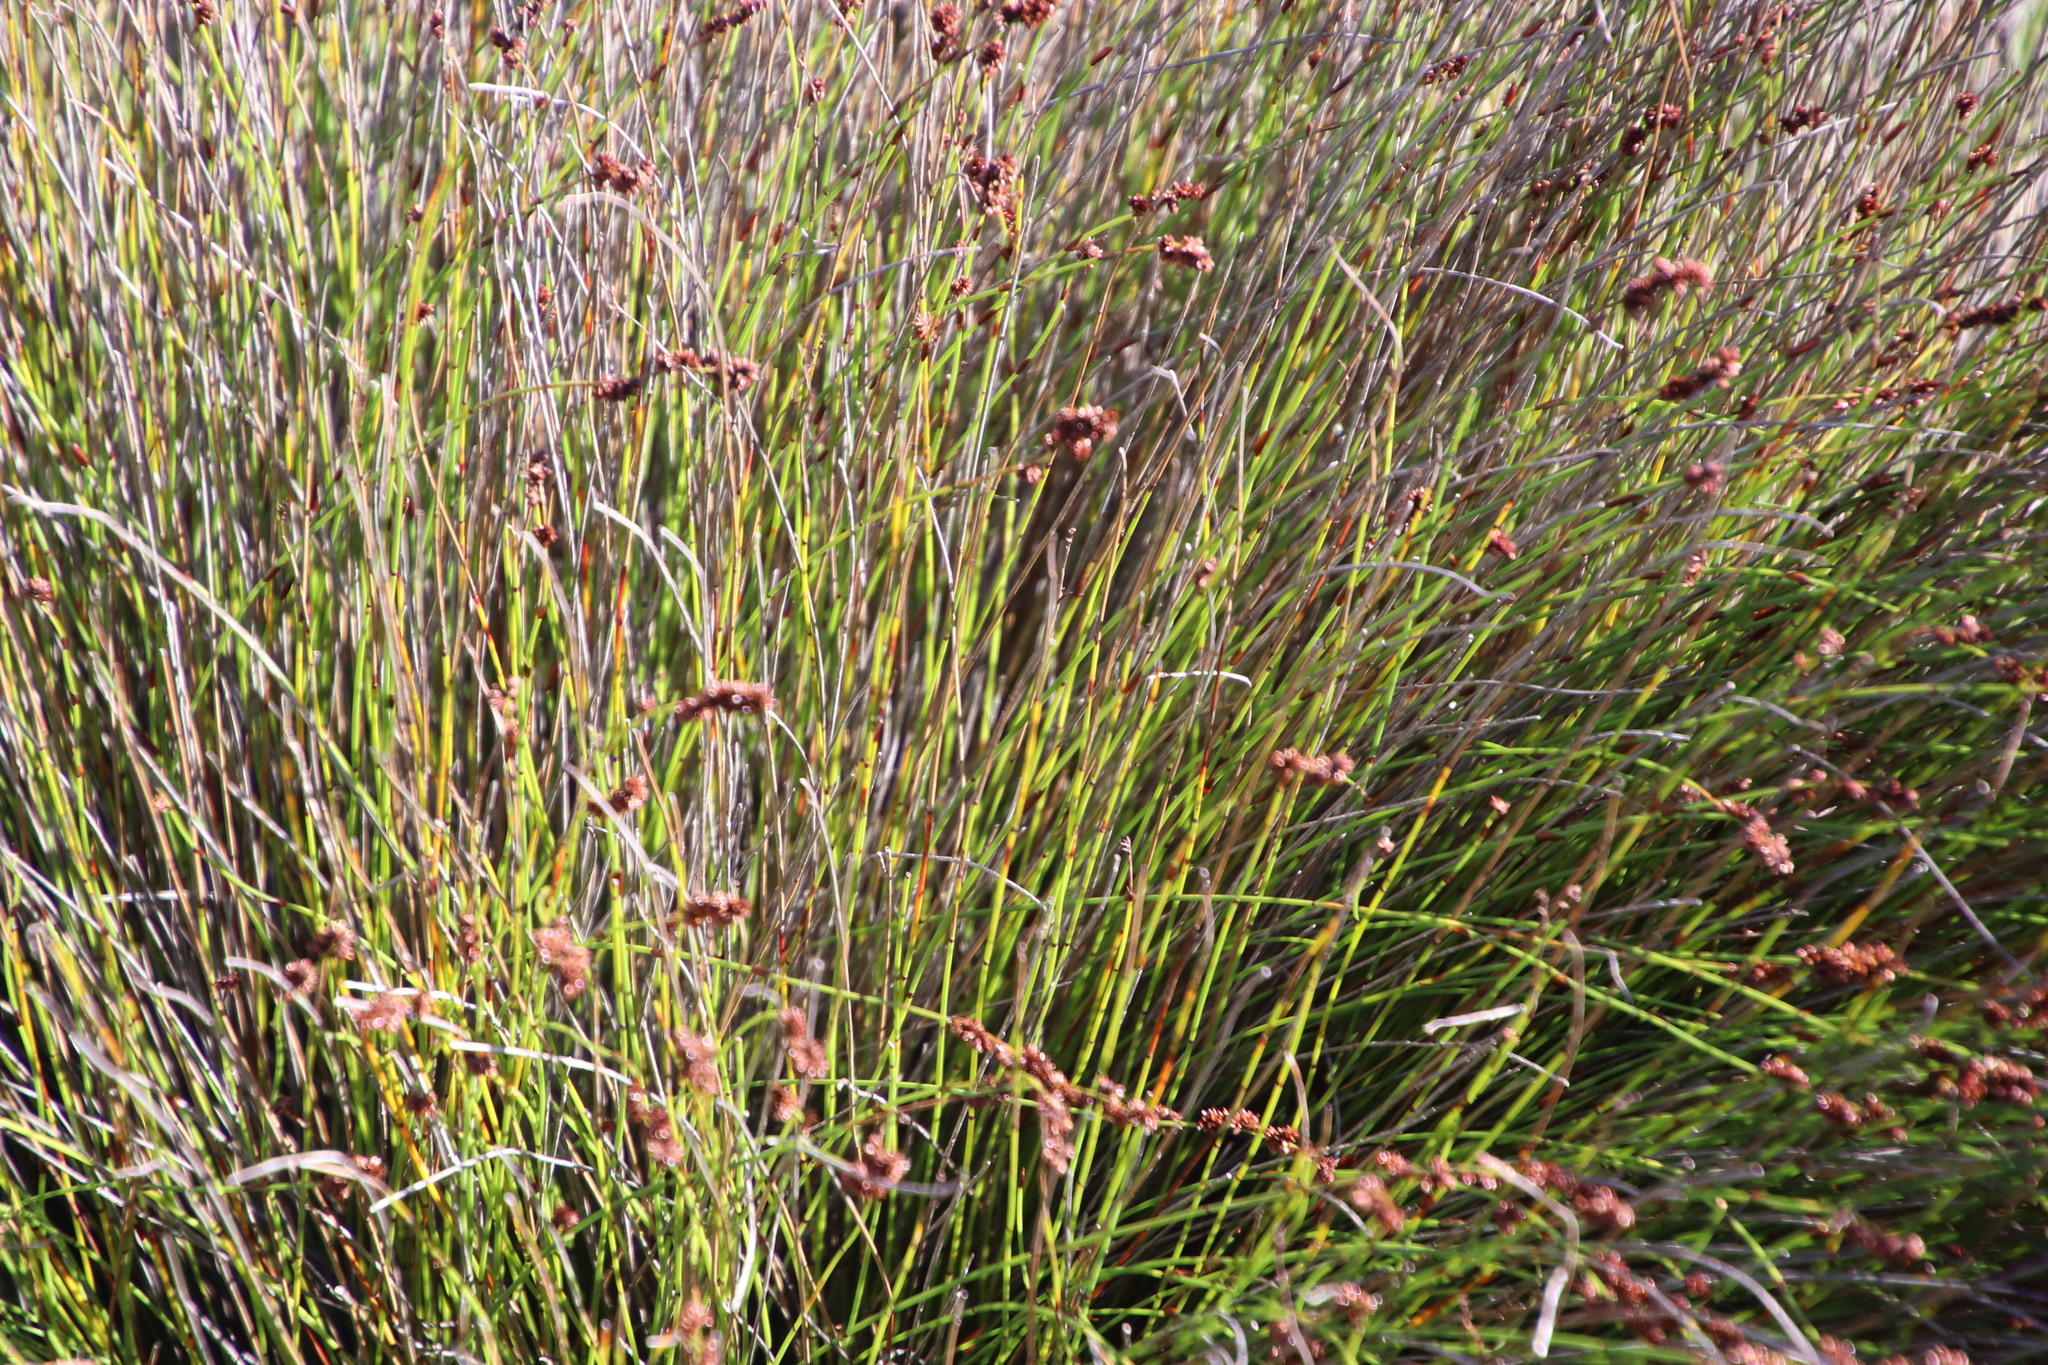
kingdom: Plantae
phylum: Tracheophyta
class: Liliopsida
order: Poales
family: Restionaceae
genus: Elegia
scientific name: Elegia nuda
